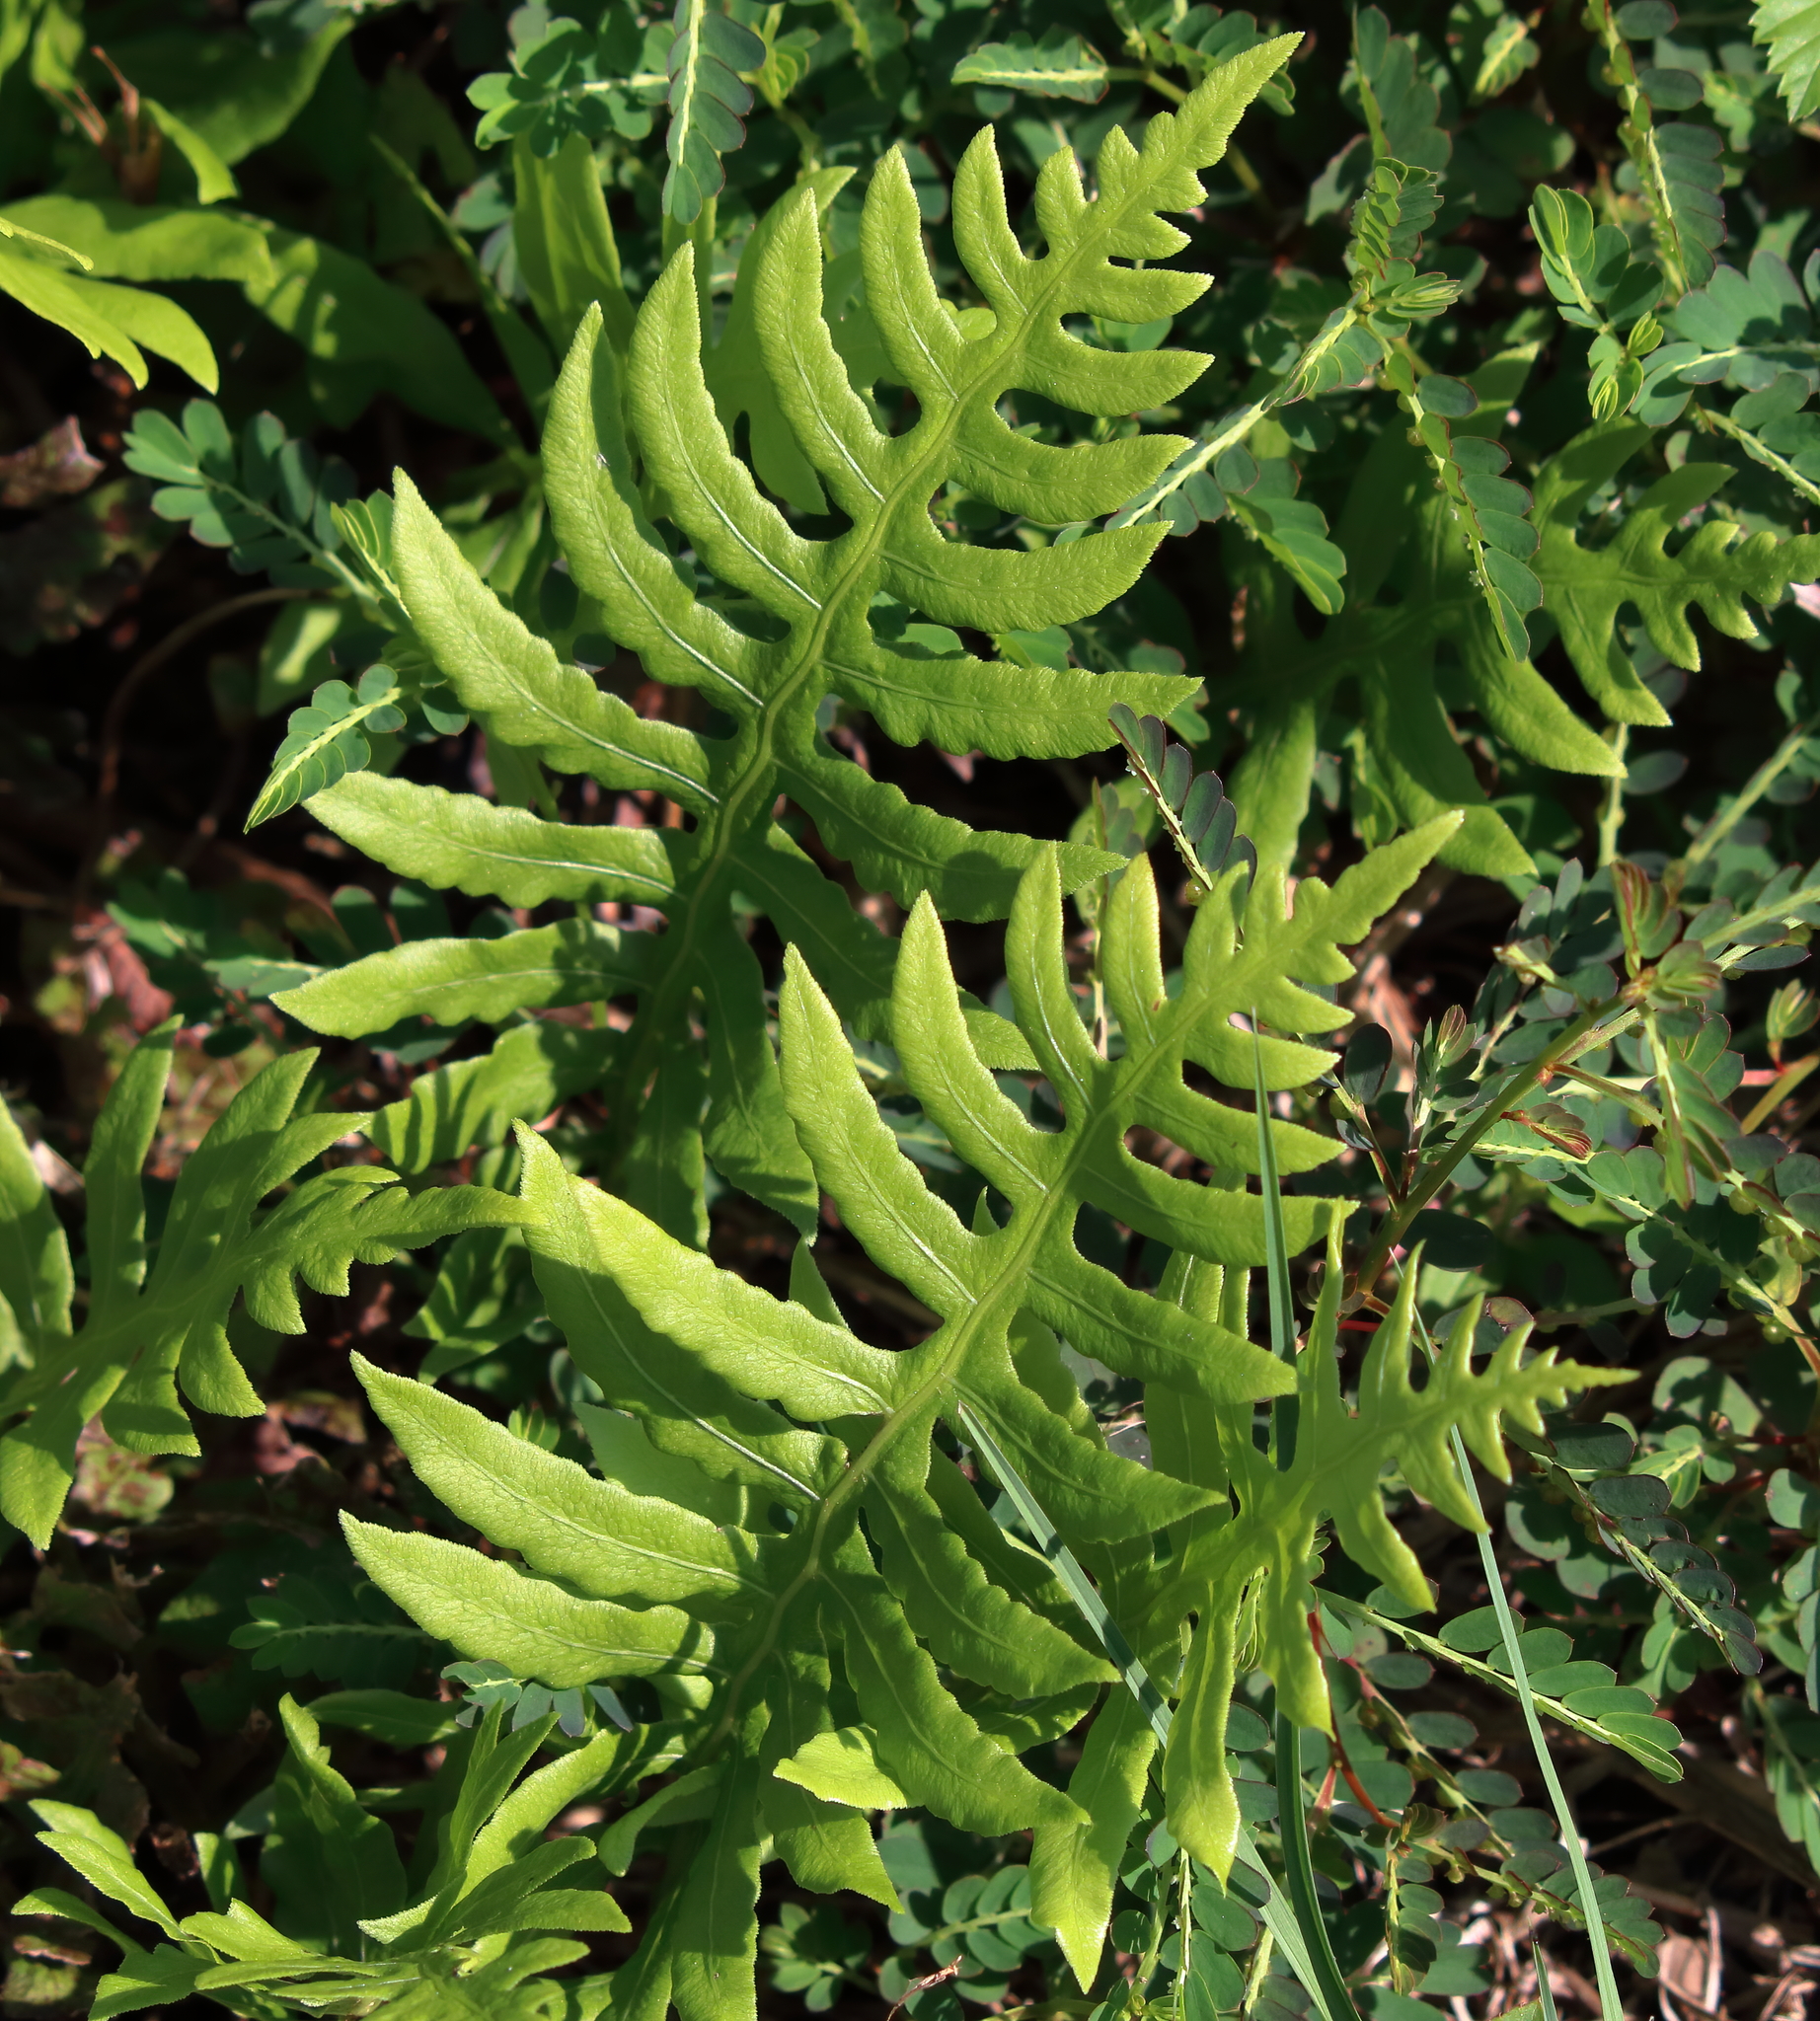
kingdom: Plantae
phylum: Tracheophyta
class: Polypodiopsida
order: Polypodiales
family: Blechnaceae
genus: Lorinseria
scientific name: Lorinseria areolata
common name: Dwarf chain fern
